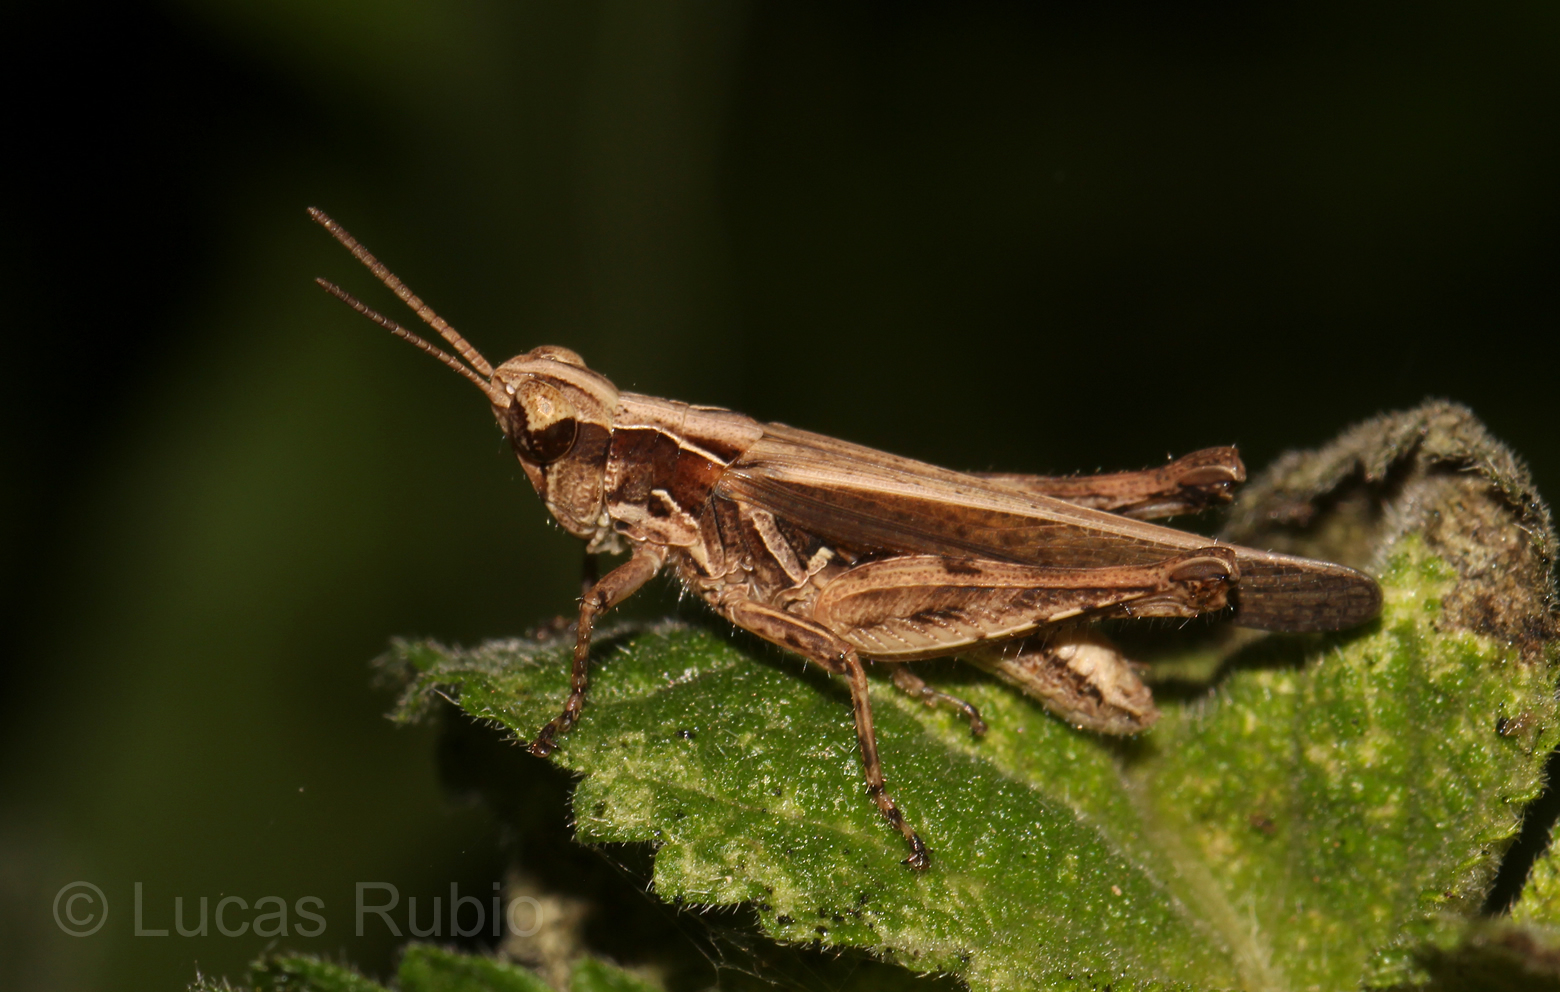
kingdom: Animalia
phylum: Arthropoda
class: Insecta
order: Orthoptera
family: Acrididae
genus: Orphulella
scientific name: Orphulella punctata
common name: Slant-faced grasshopper
